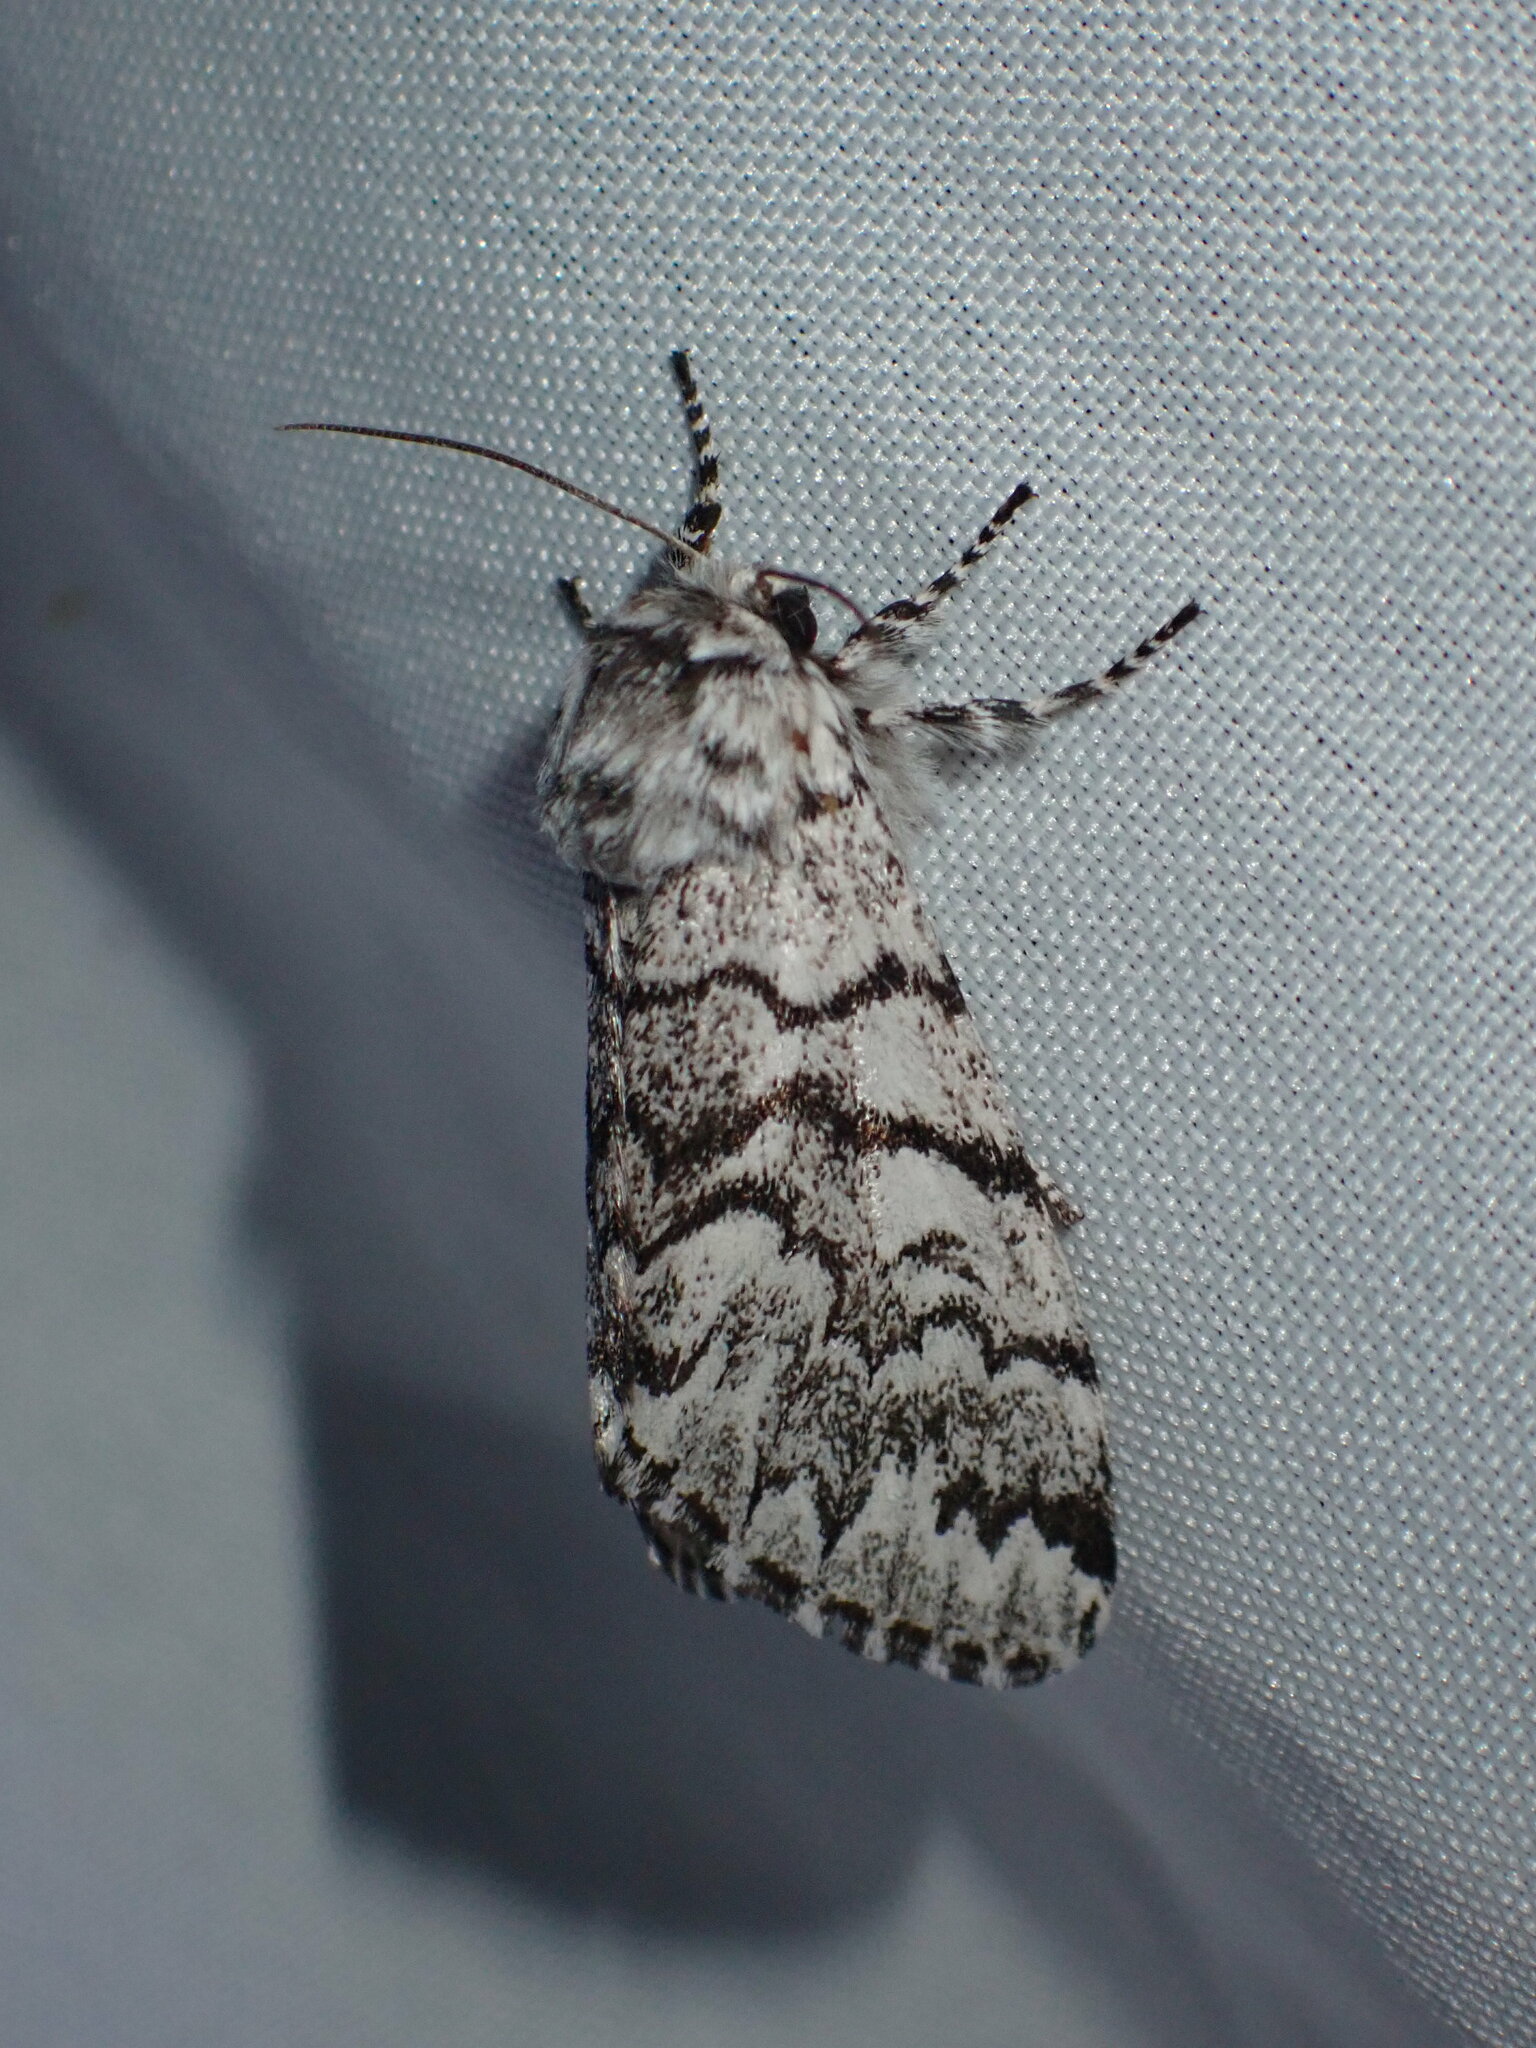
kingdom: Animalia
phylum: Arthropoda
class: Insecta
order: Lepidoptera
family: Noctuidae
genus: Panthea
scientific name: Panthea virginarius
